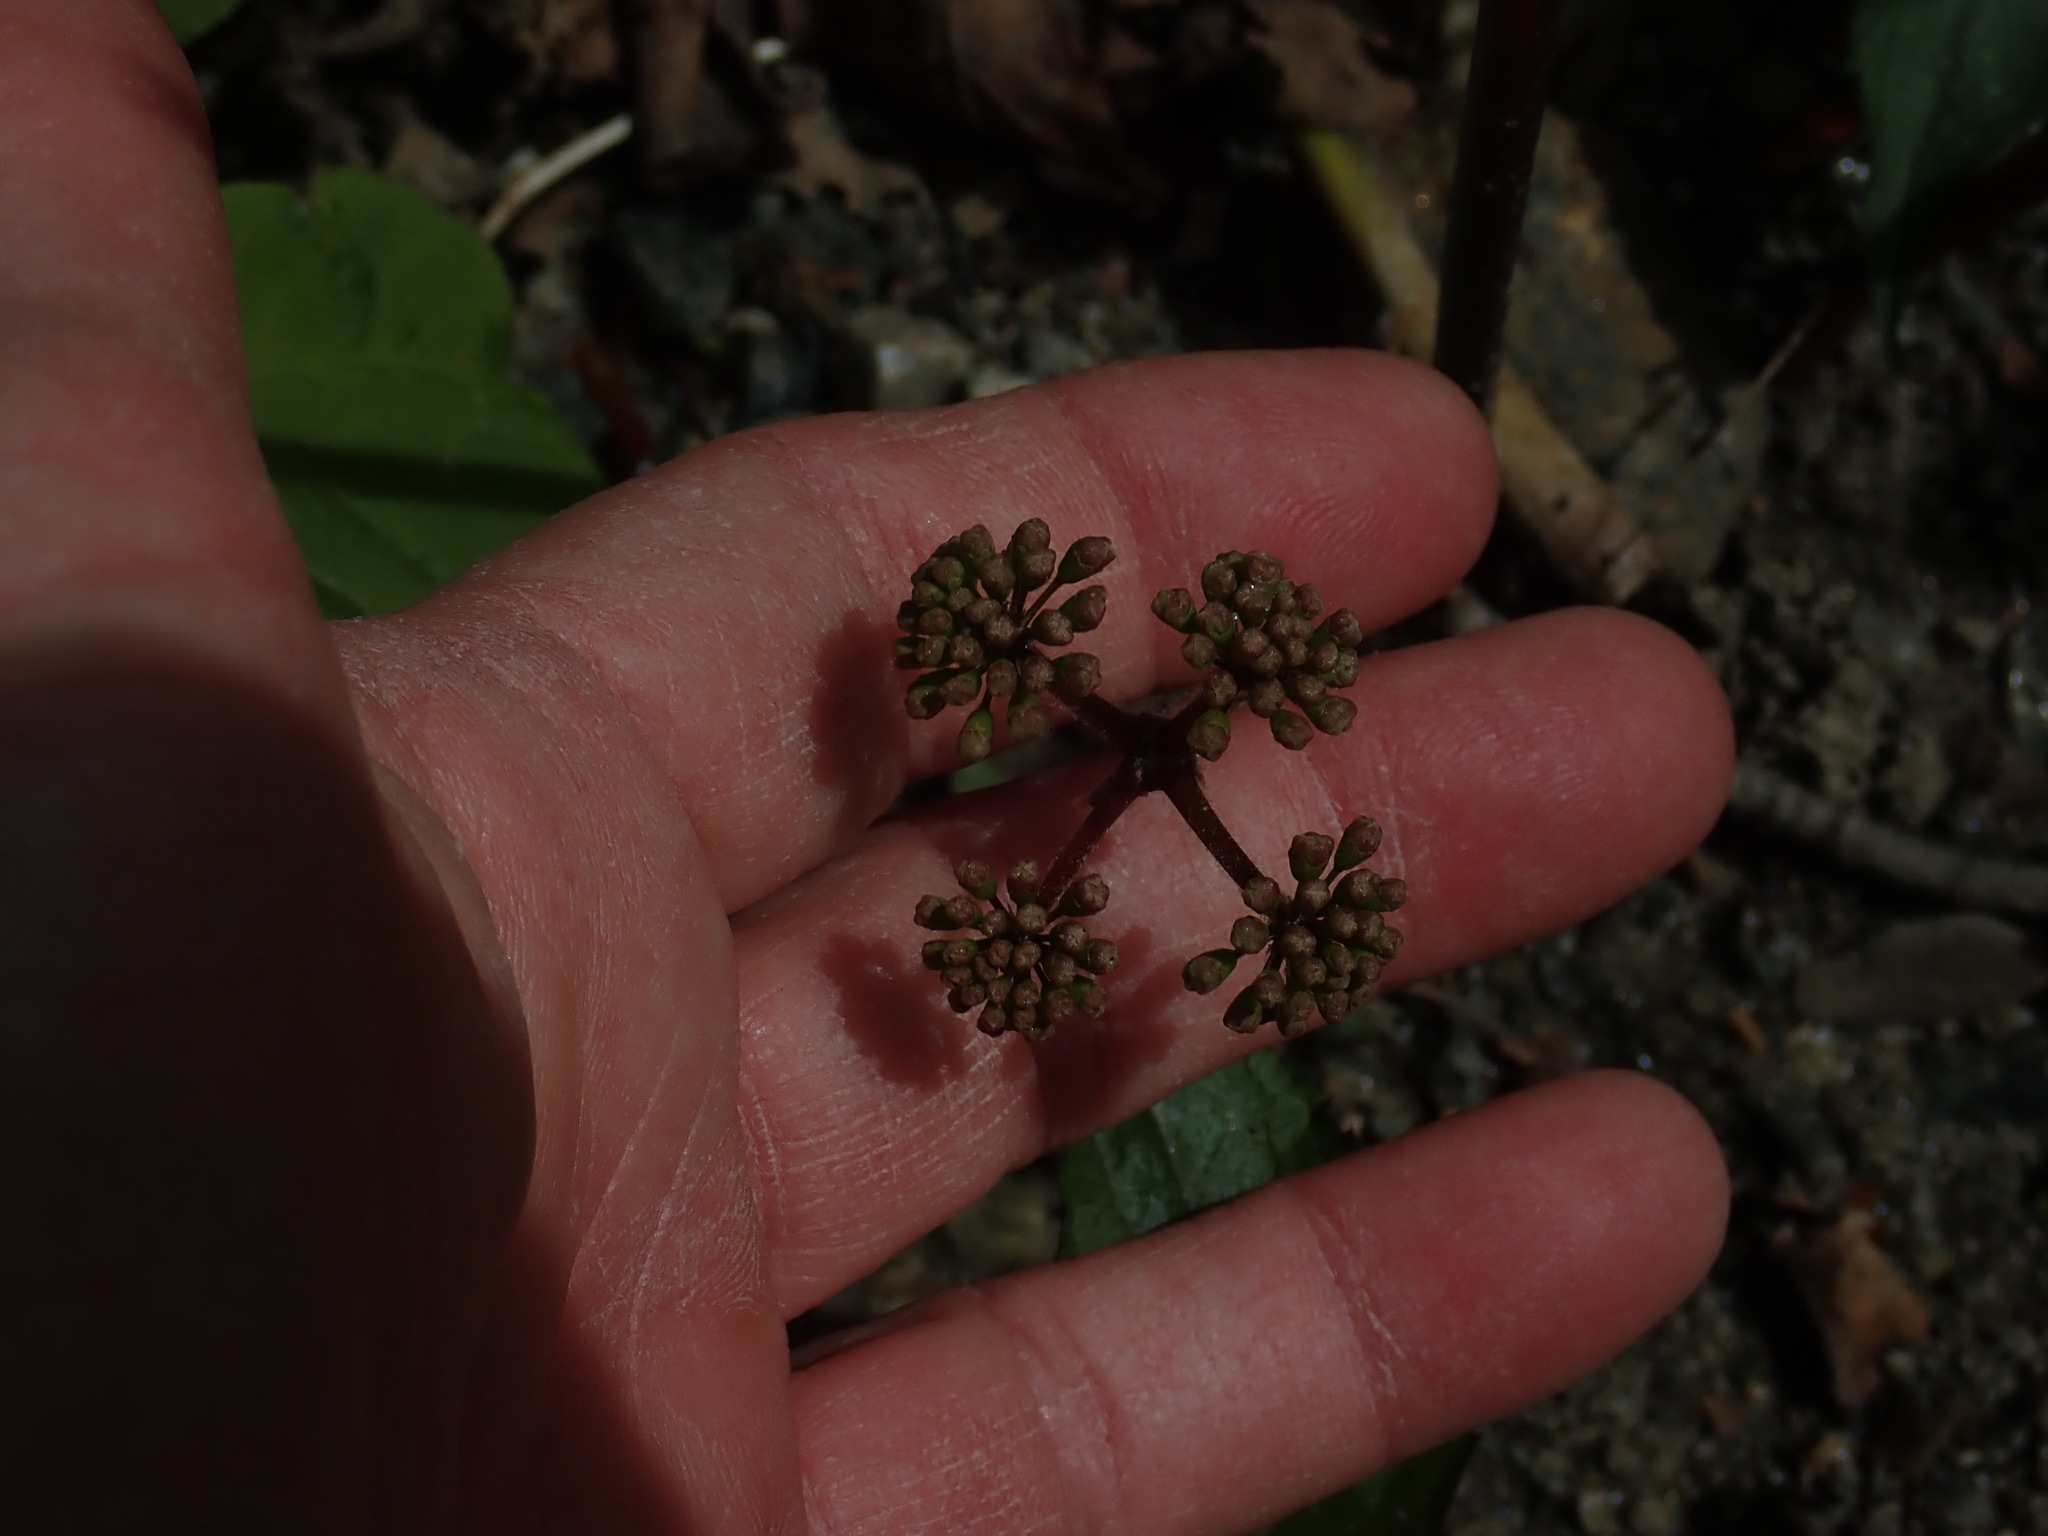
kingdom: Plantae
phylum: Tracheophyta
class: Magnoliopsida
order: Apiales
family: Araliaceae
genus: Aralia
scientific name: Aralia nudicaulis
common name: Wild sarsaparilla
